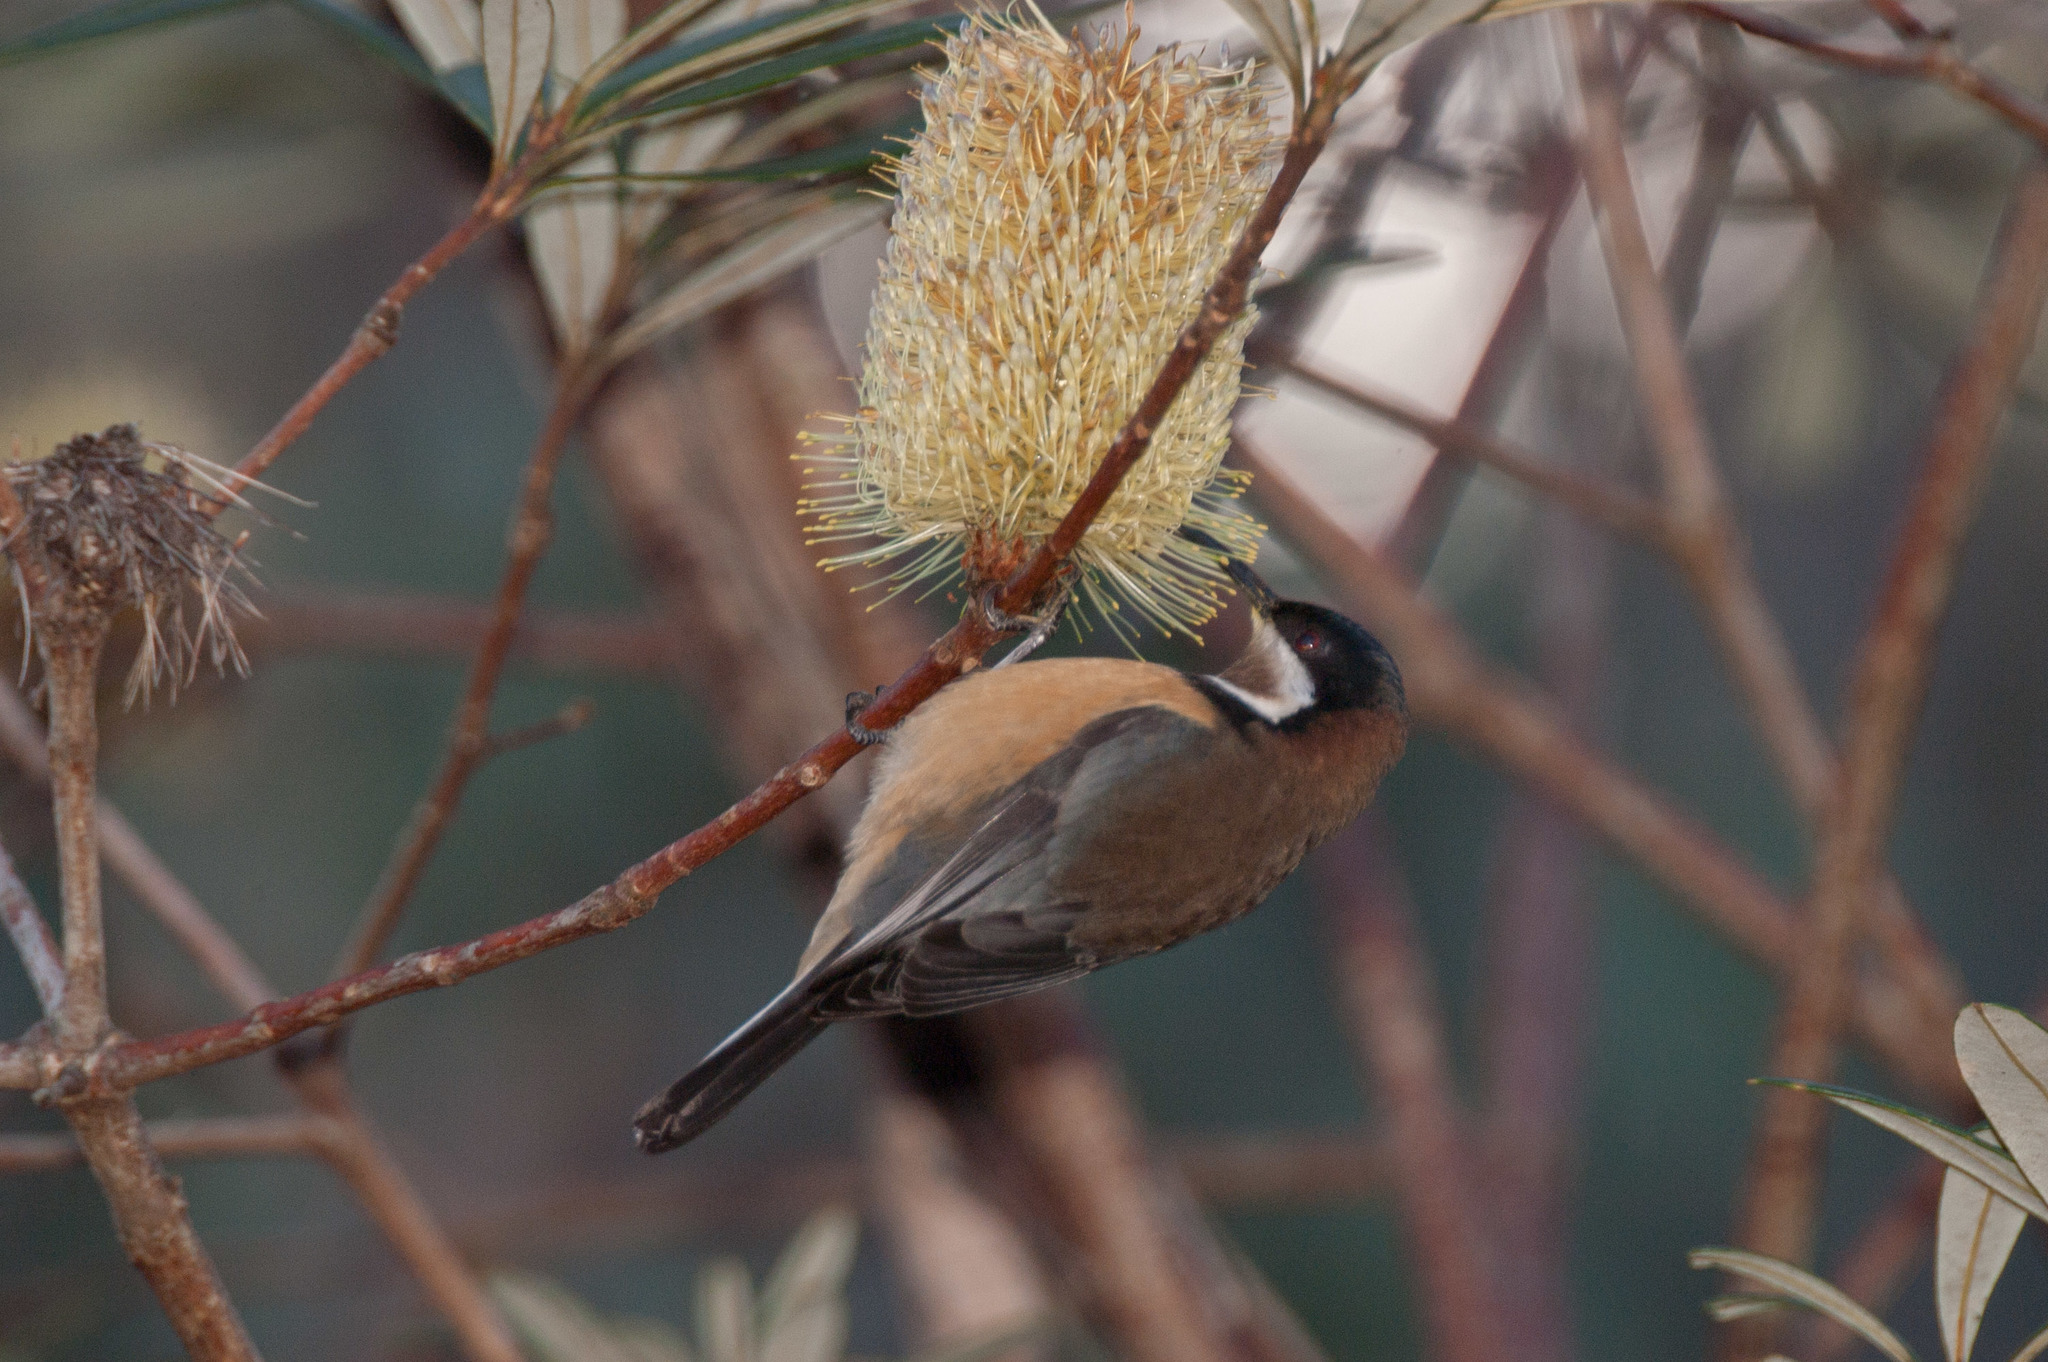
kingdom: Animalia
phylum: Chordata
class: Aves
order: Passeriformes
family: Meliphagidae
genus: Acanthorhynchus
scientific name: Acanthorhynchus tenuirostris
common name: Eastern spinebill
